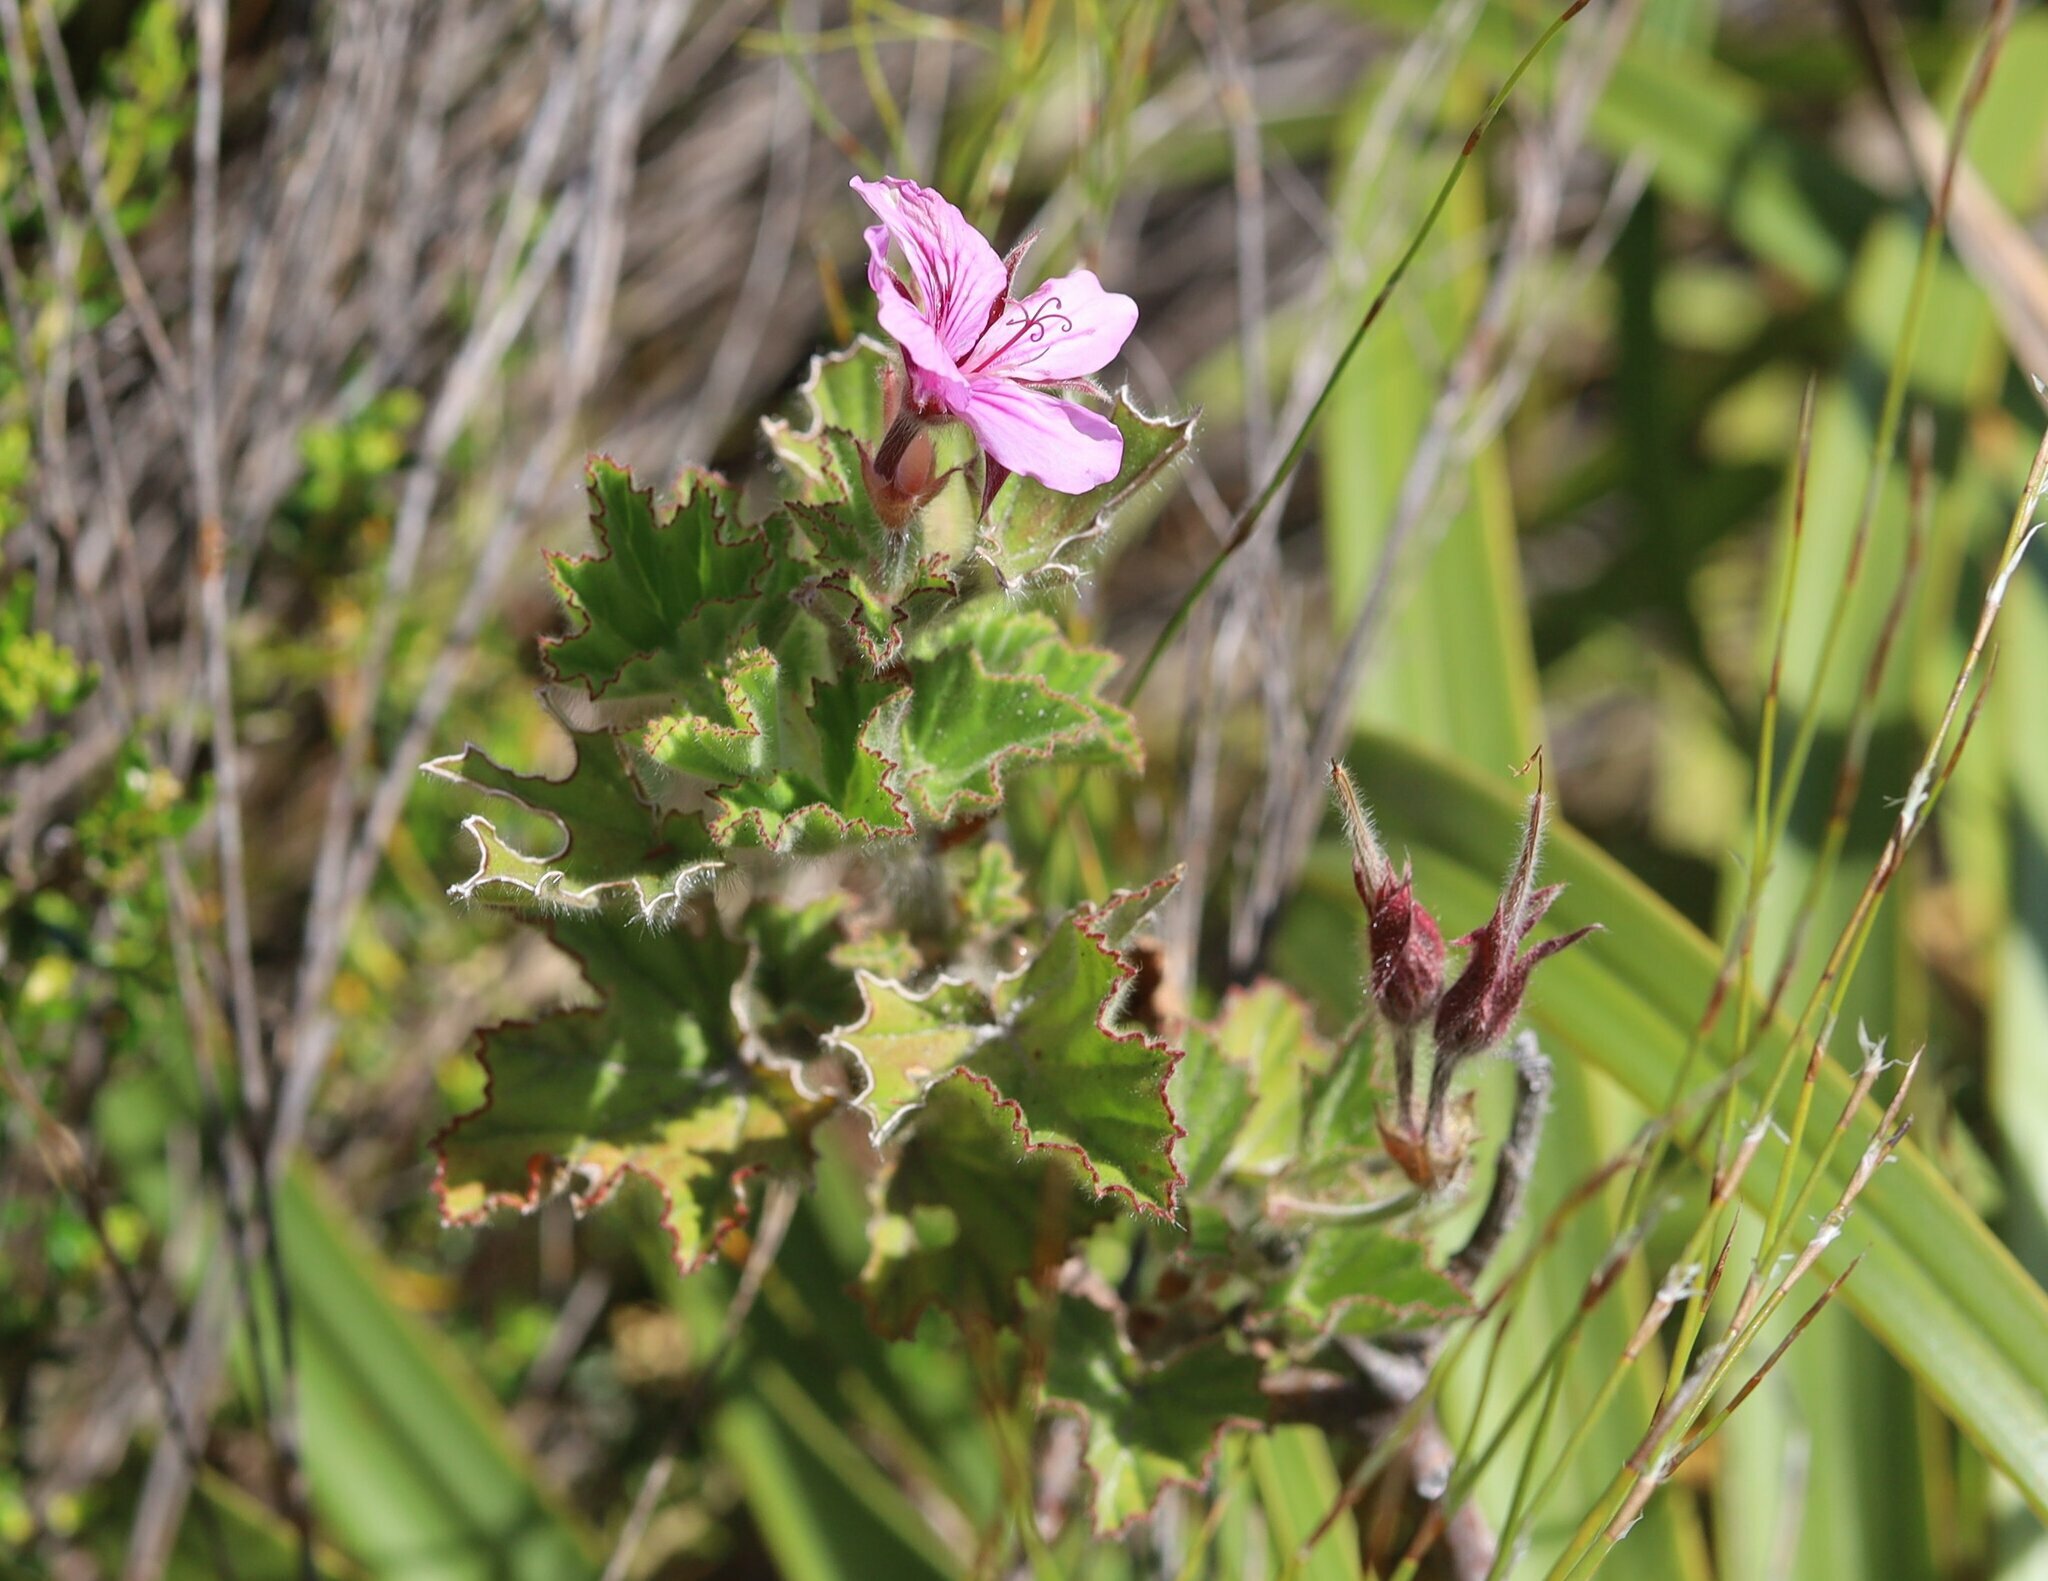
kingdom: Plantae
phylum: Tracheophyta
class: Magnoliopsida
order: Geraniales
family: Geraniaceae
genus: Pelargonium
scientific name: Pelargonium cucullatum
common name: Tree pelargonium
